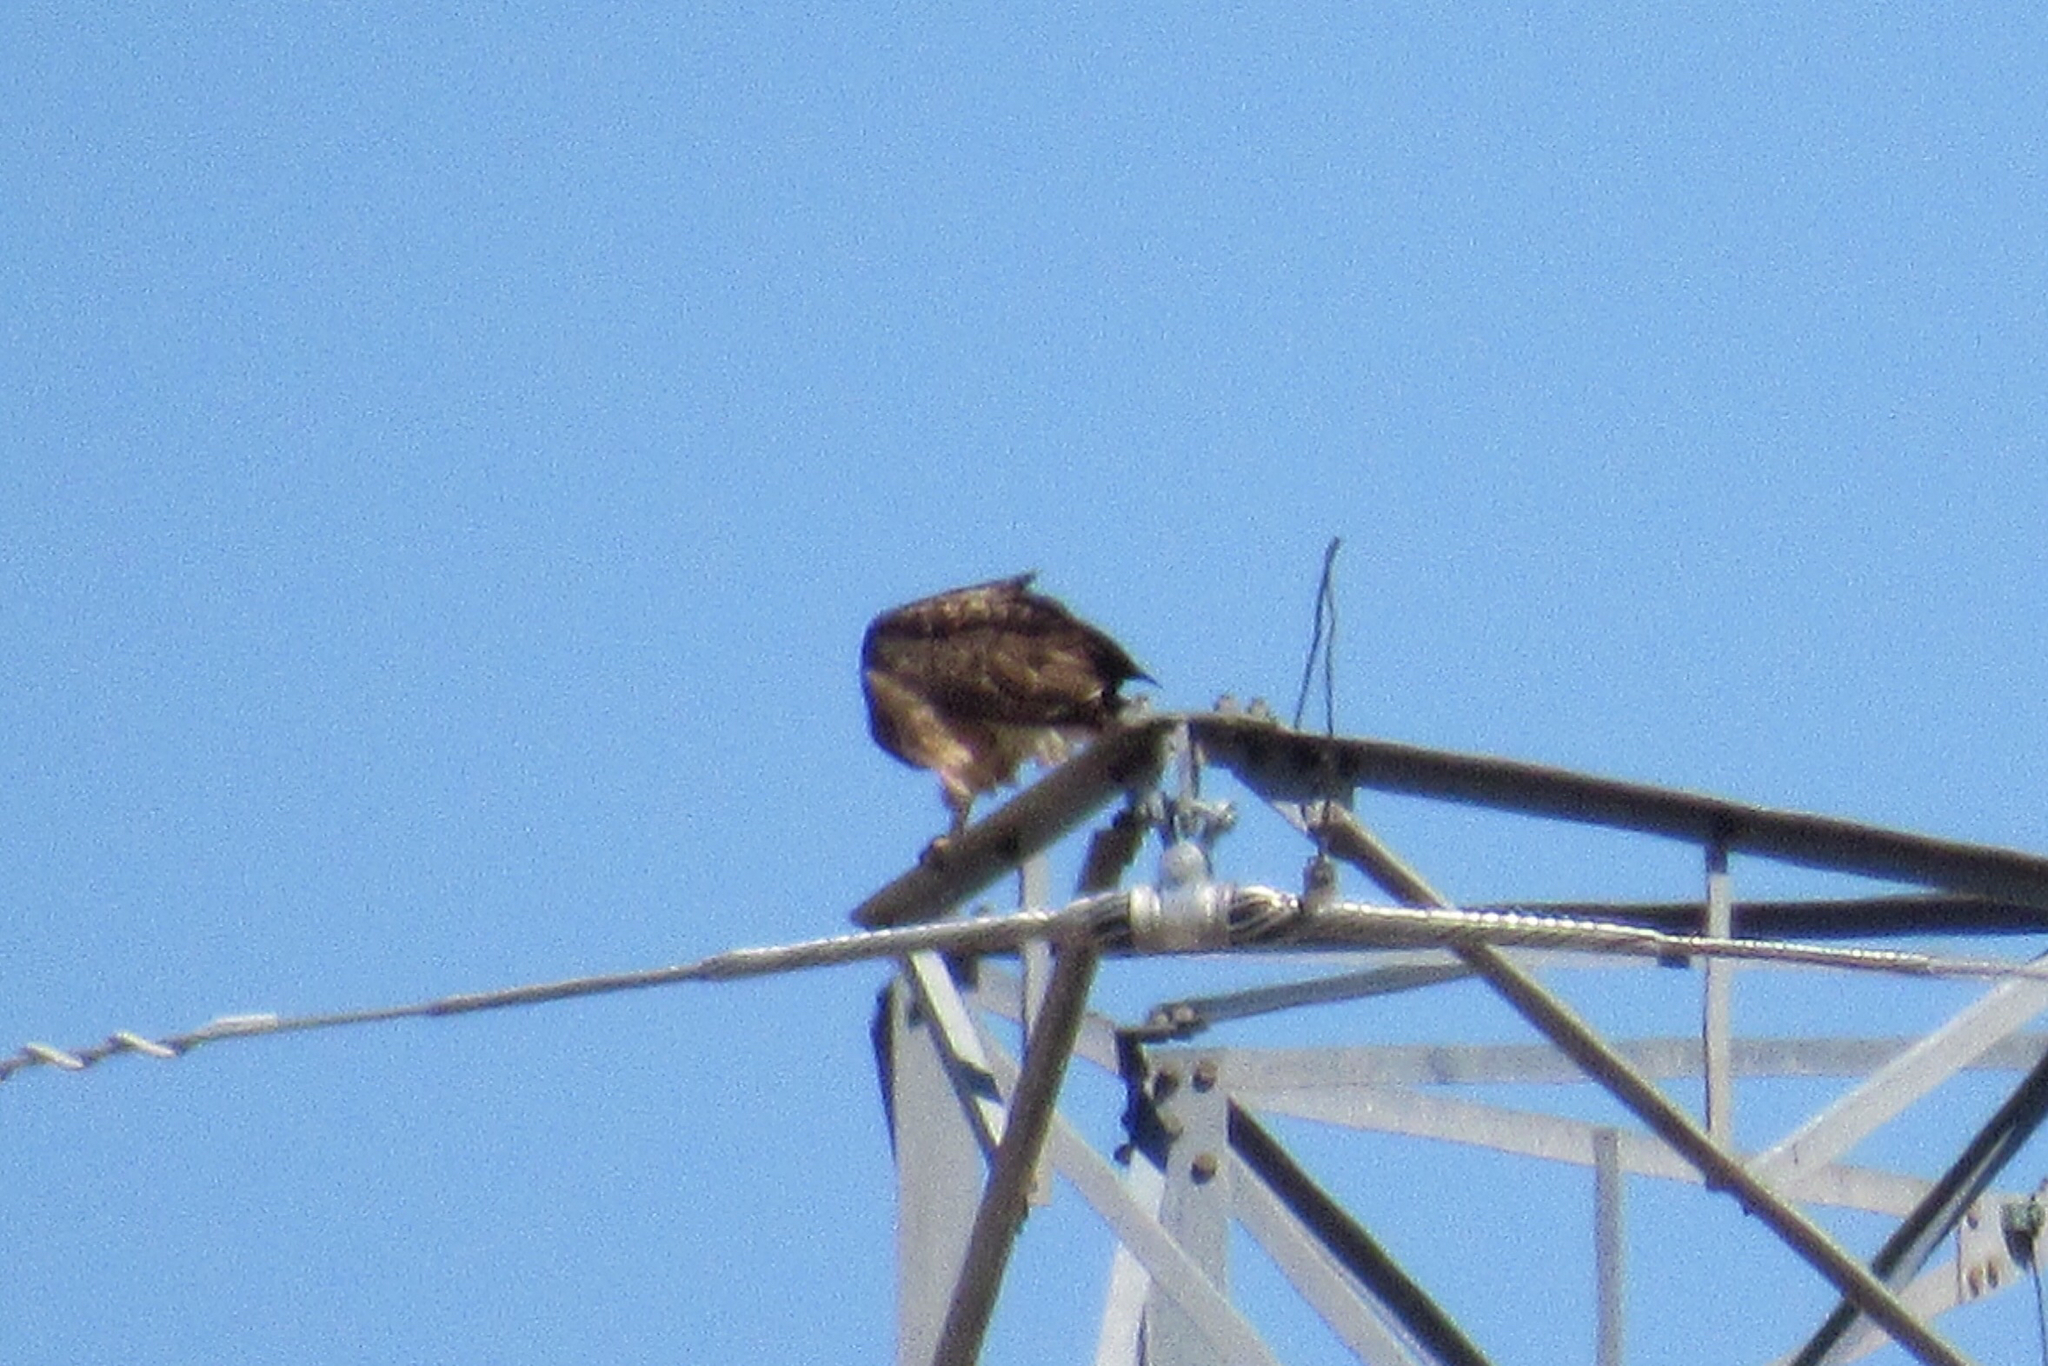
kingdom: Animalia
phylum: Chordata
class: Aves
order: Accipitriformes
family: Accipitridae
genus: Buteo
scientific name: Buteo jamaicensis
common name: Red-tailed hawk
